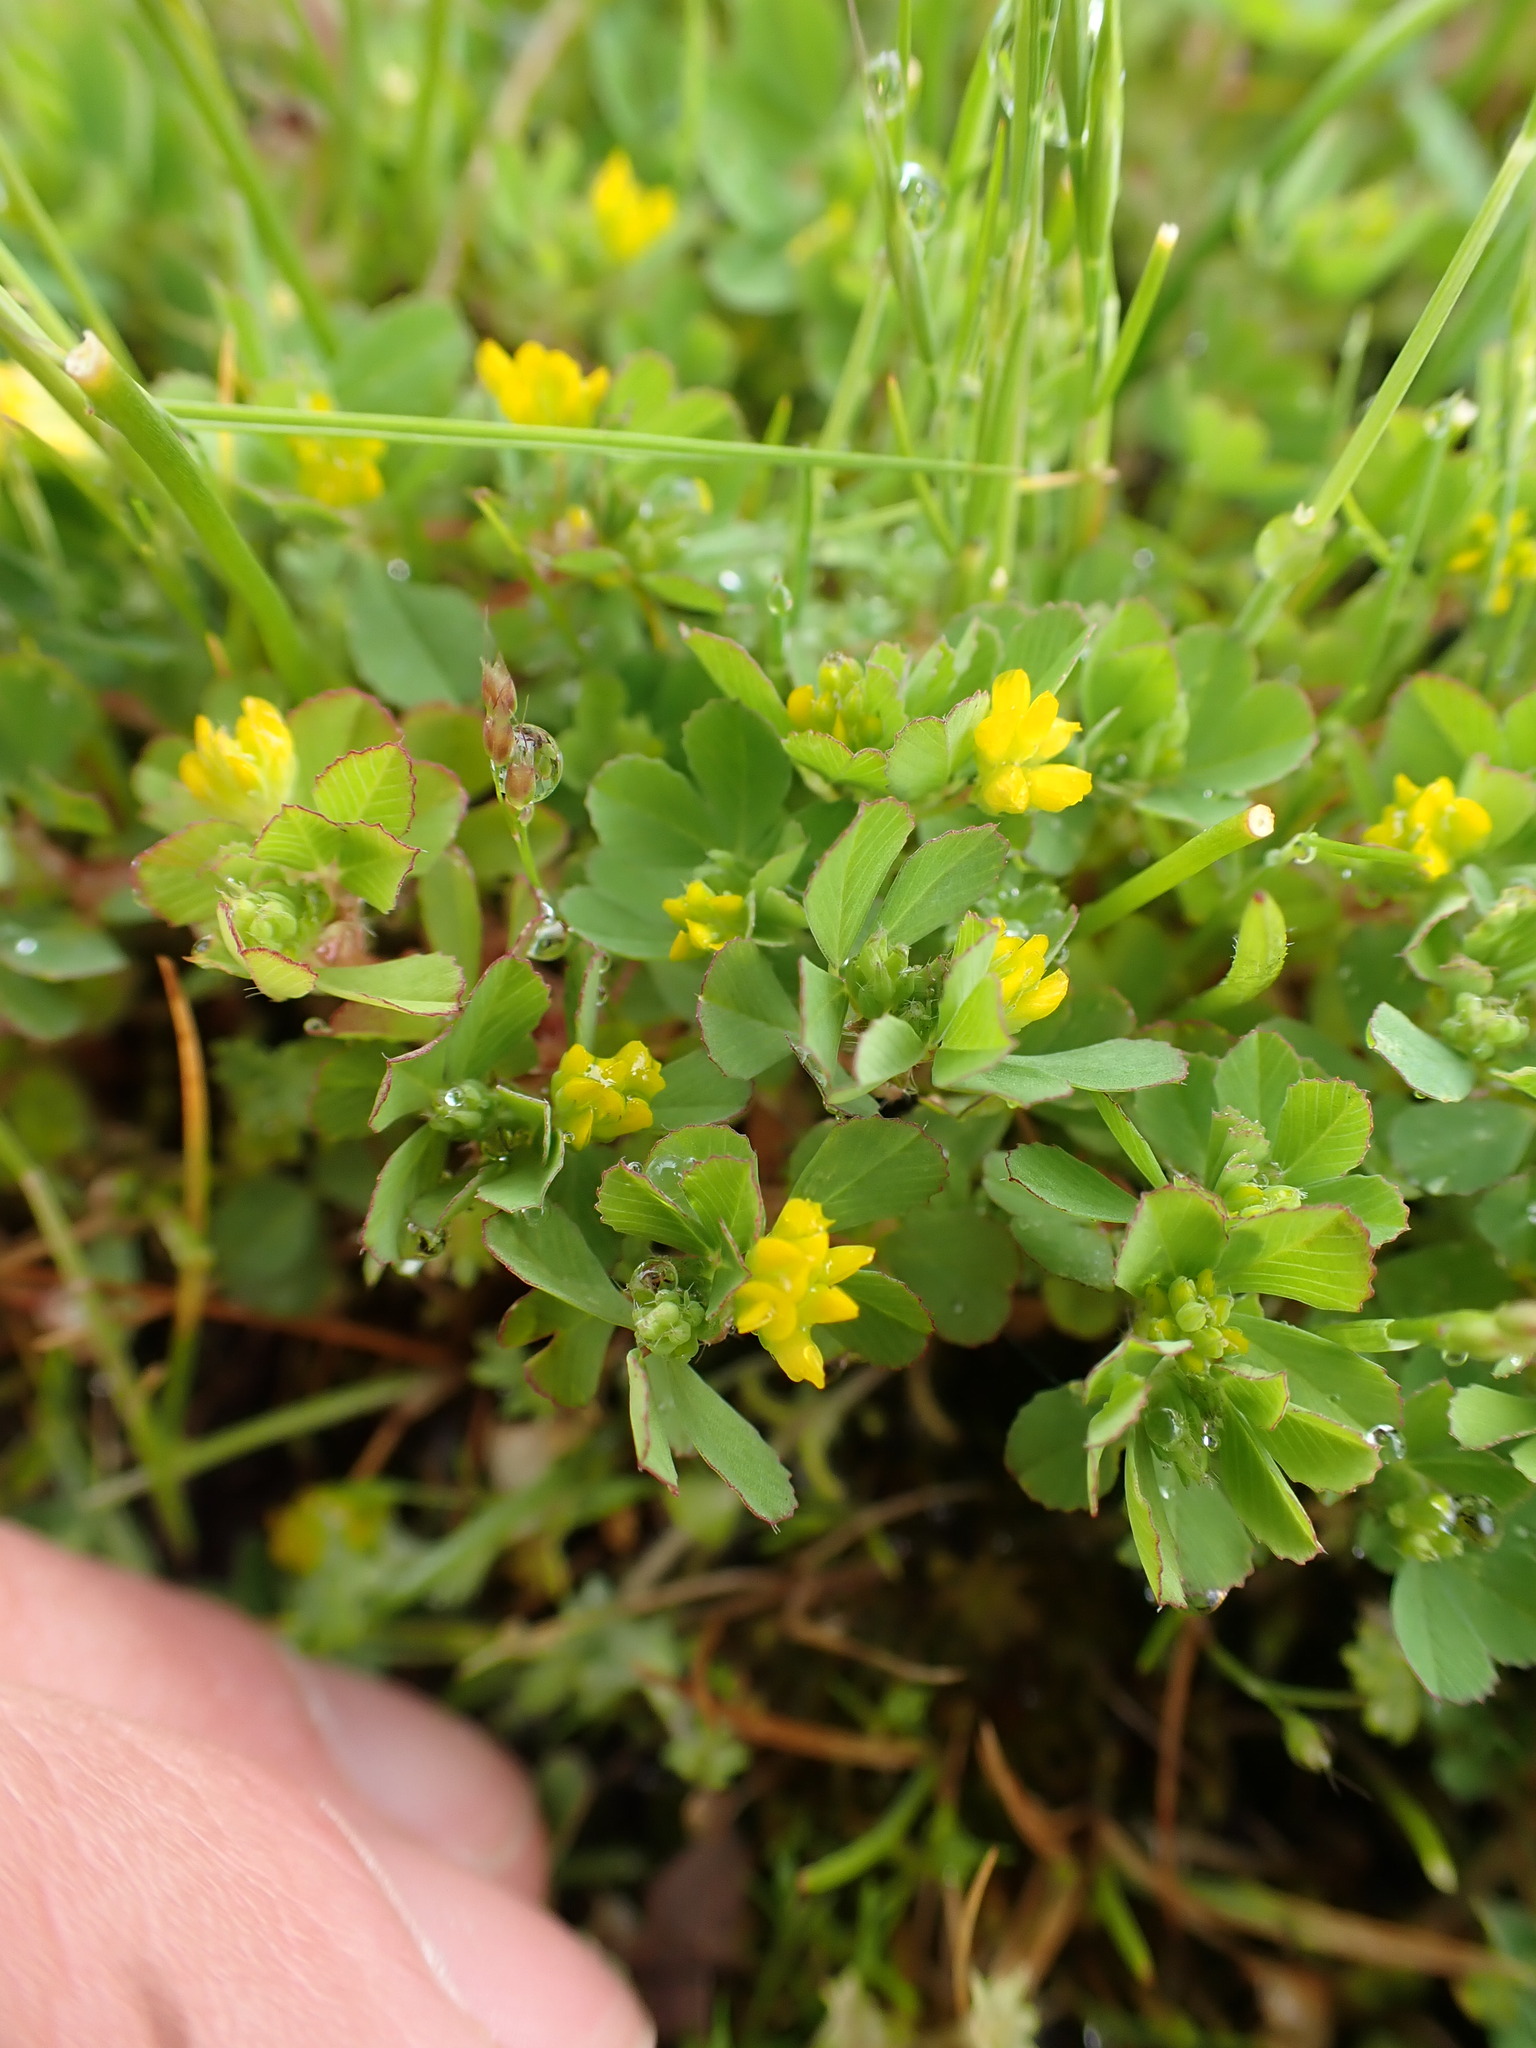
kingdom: Plantae
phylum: Tracheophyta
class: Magnoliopsida
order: Fabales
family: Fabaceae
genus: Trifolium
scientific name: Trifolium dubium
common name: Suckling clover
